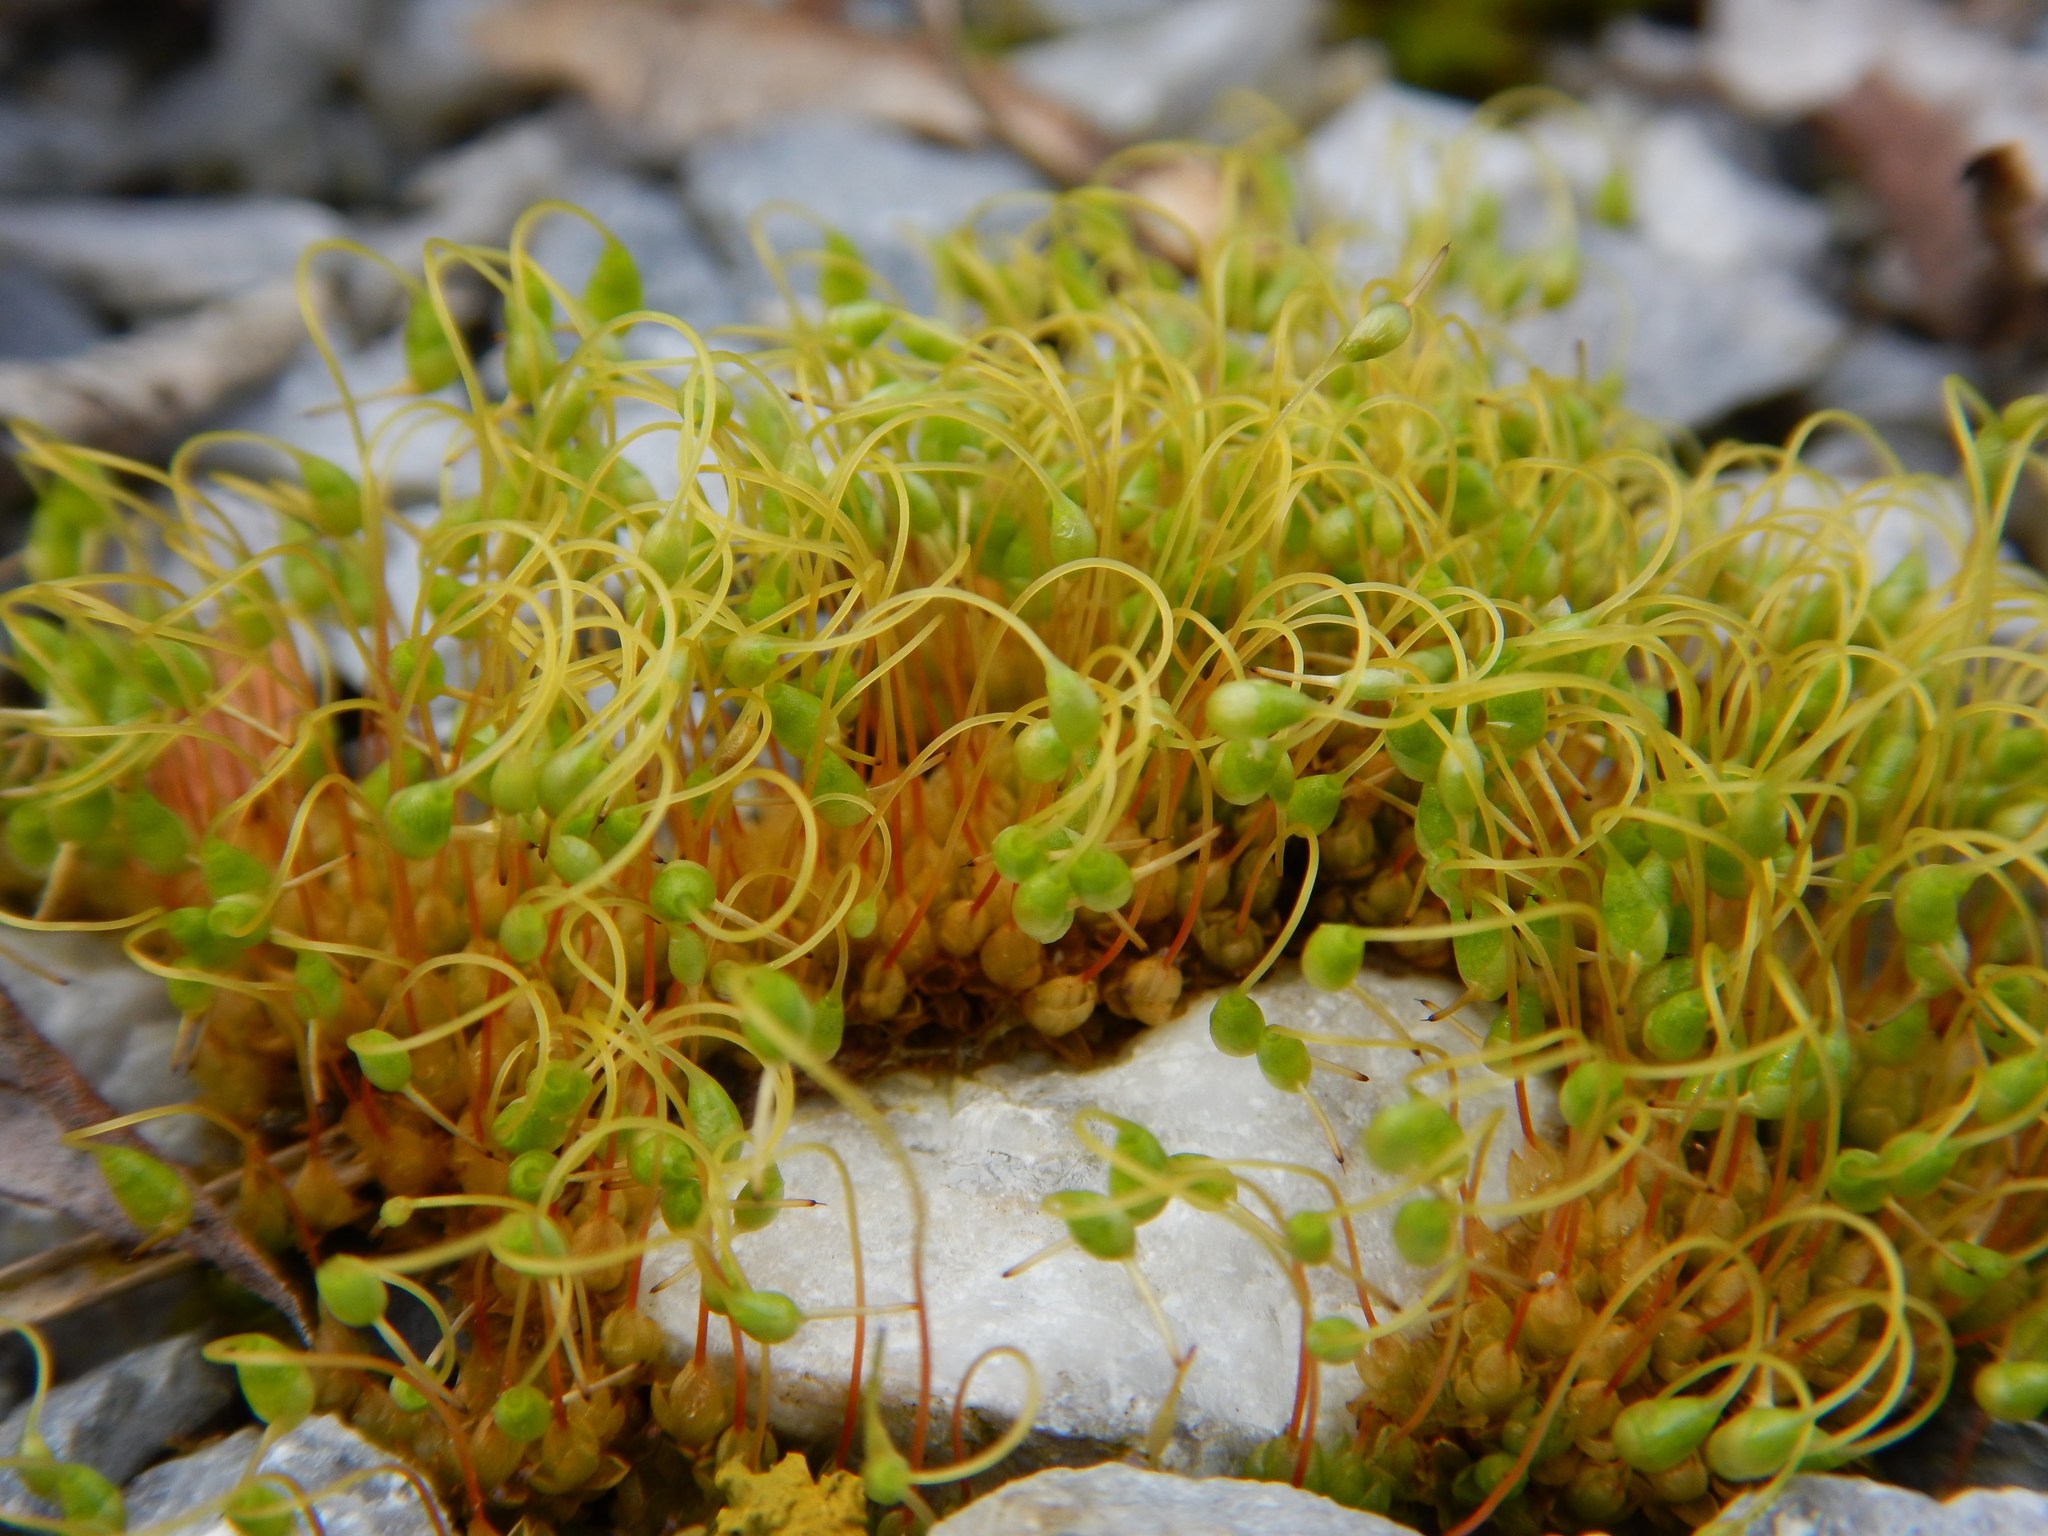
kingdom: Plantae
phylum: Bryophyta
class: Bryopsida
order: Funariales
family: Funariaceae
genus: Funaria
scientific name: Funaria hygrometrica
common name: Common cord moss
